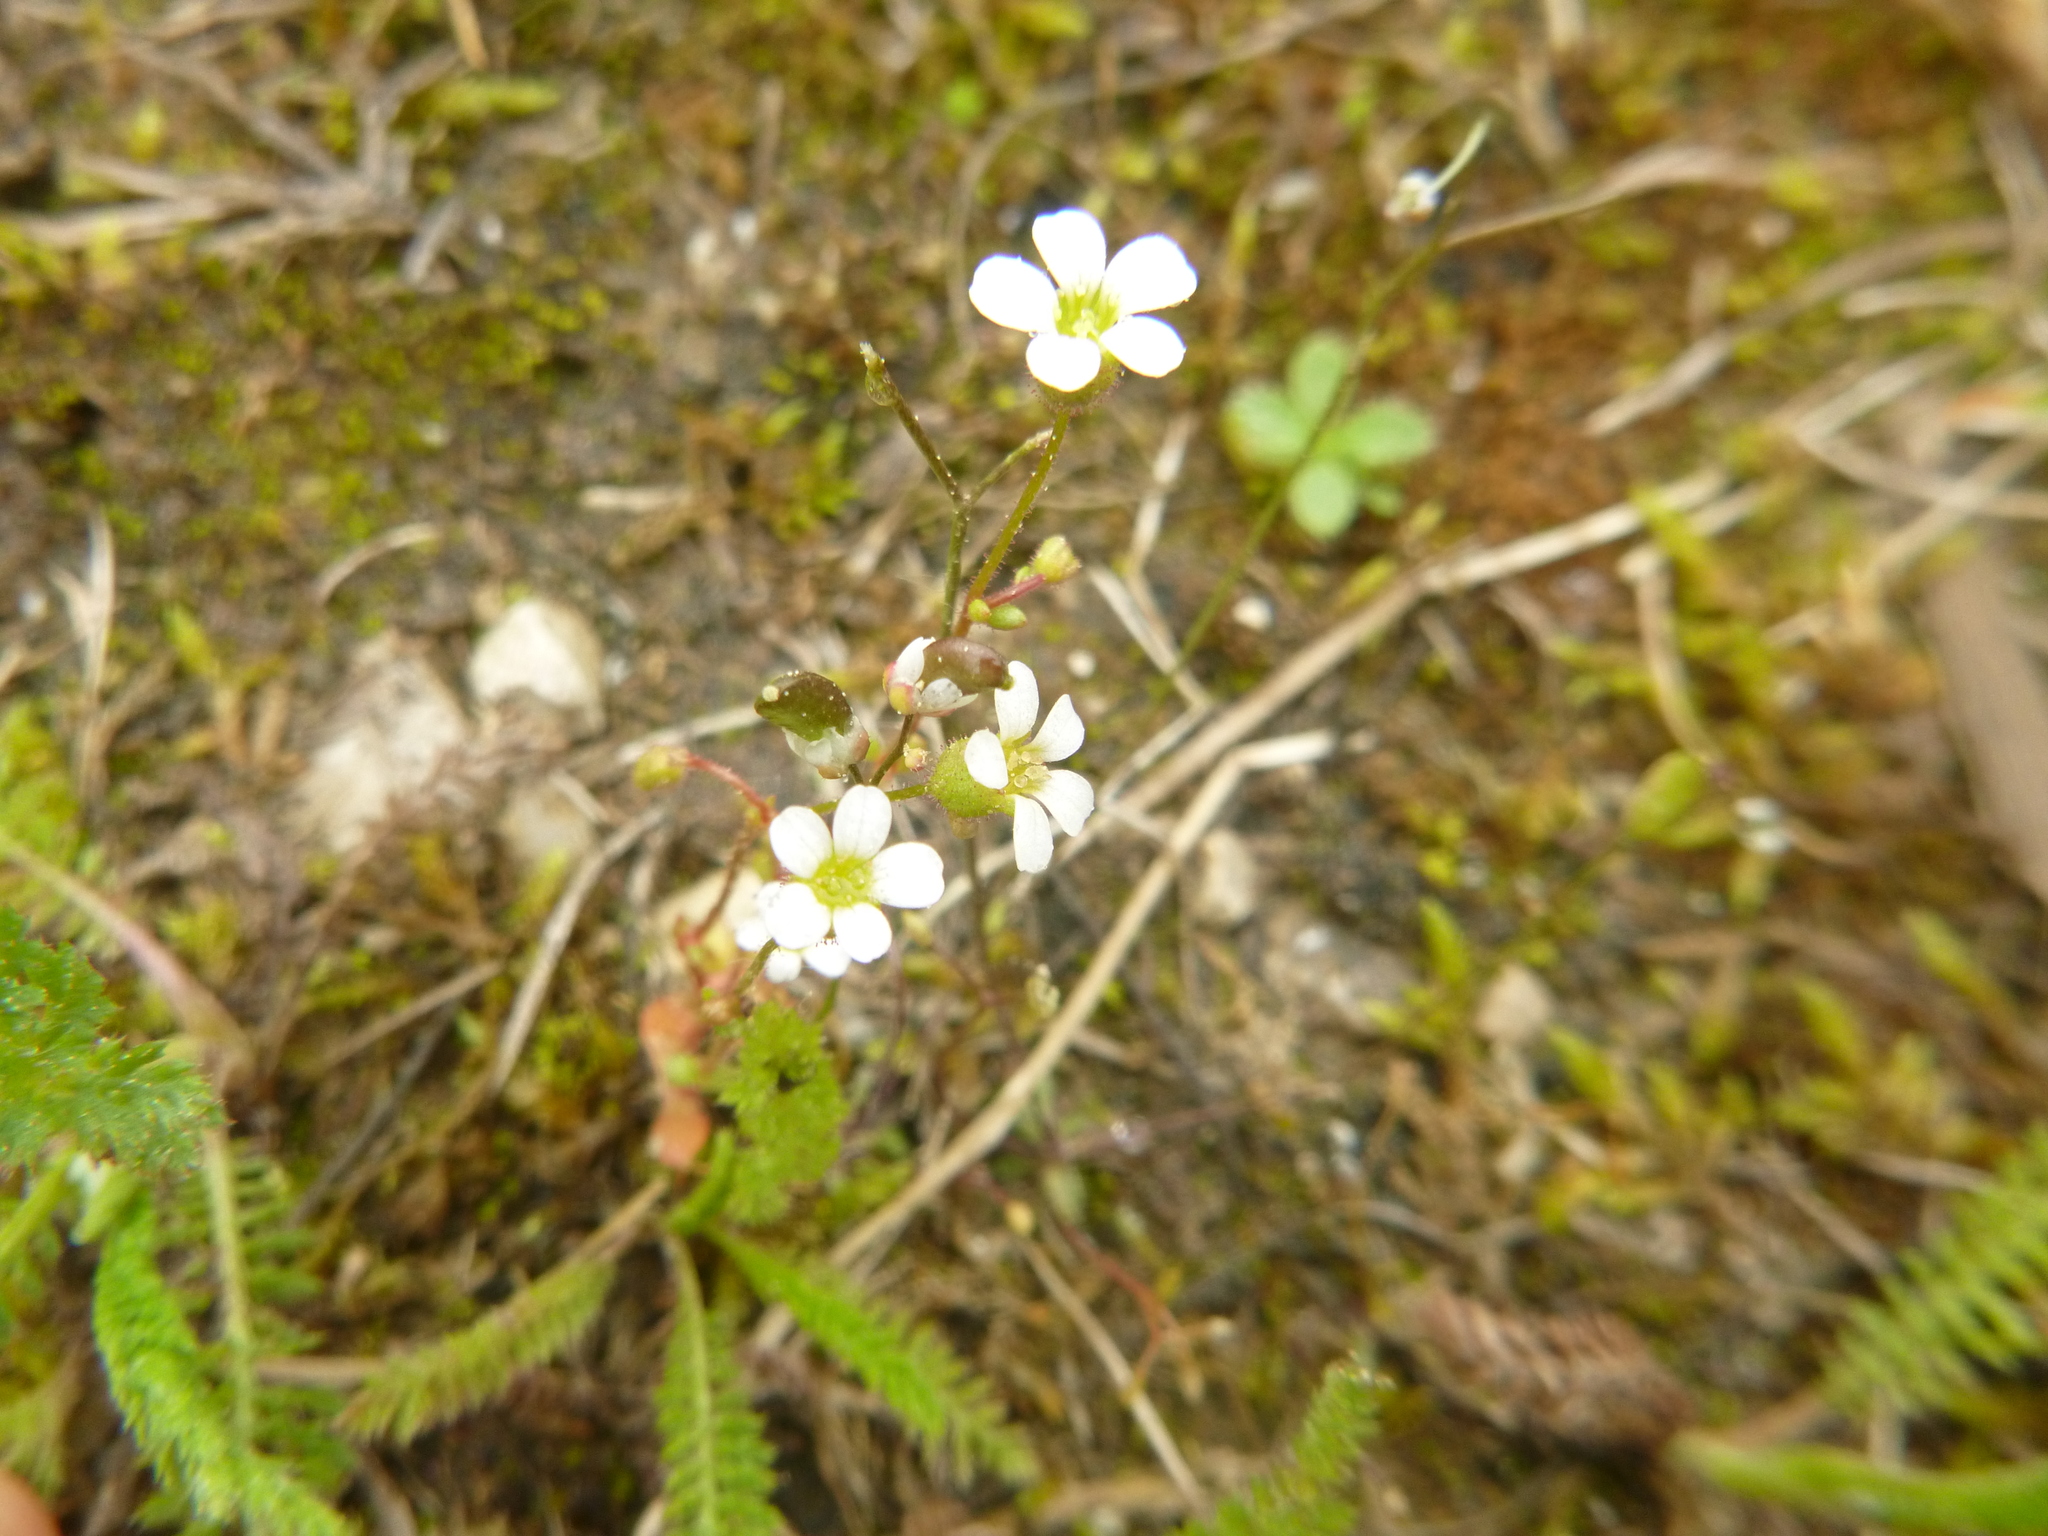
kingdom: Plantae
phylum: Tracheophyta
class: Magnoliopsida
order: Saxifragales
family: Saxifragaceae
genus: Saxifraga
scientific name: Saxifraga tridactylites
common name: Rue-leaved saxifrage
